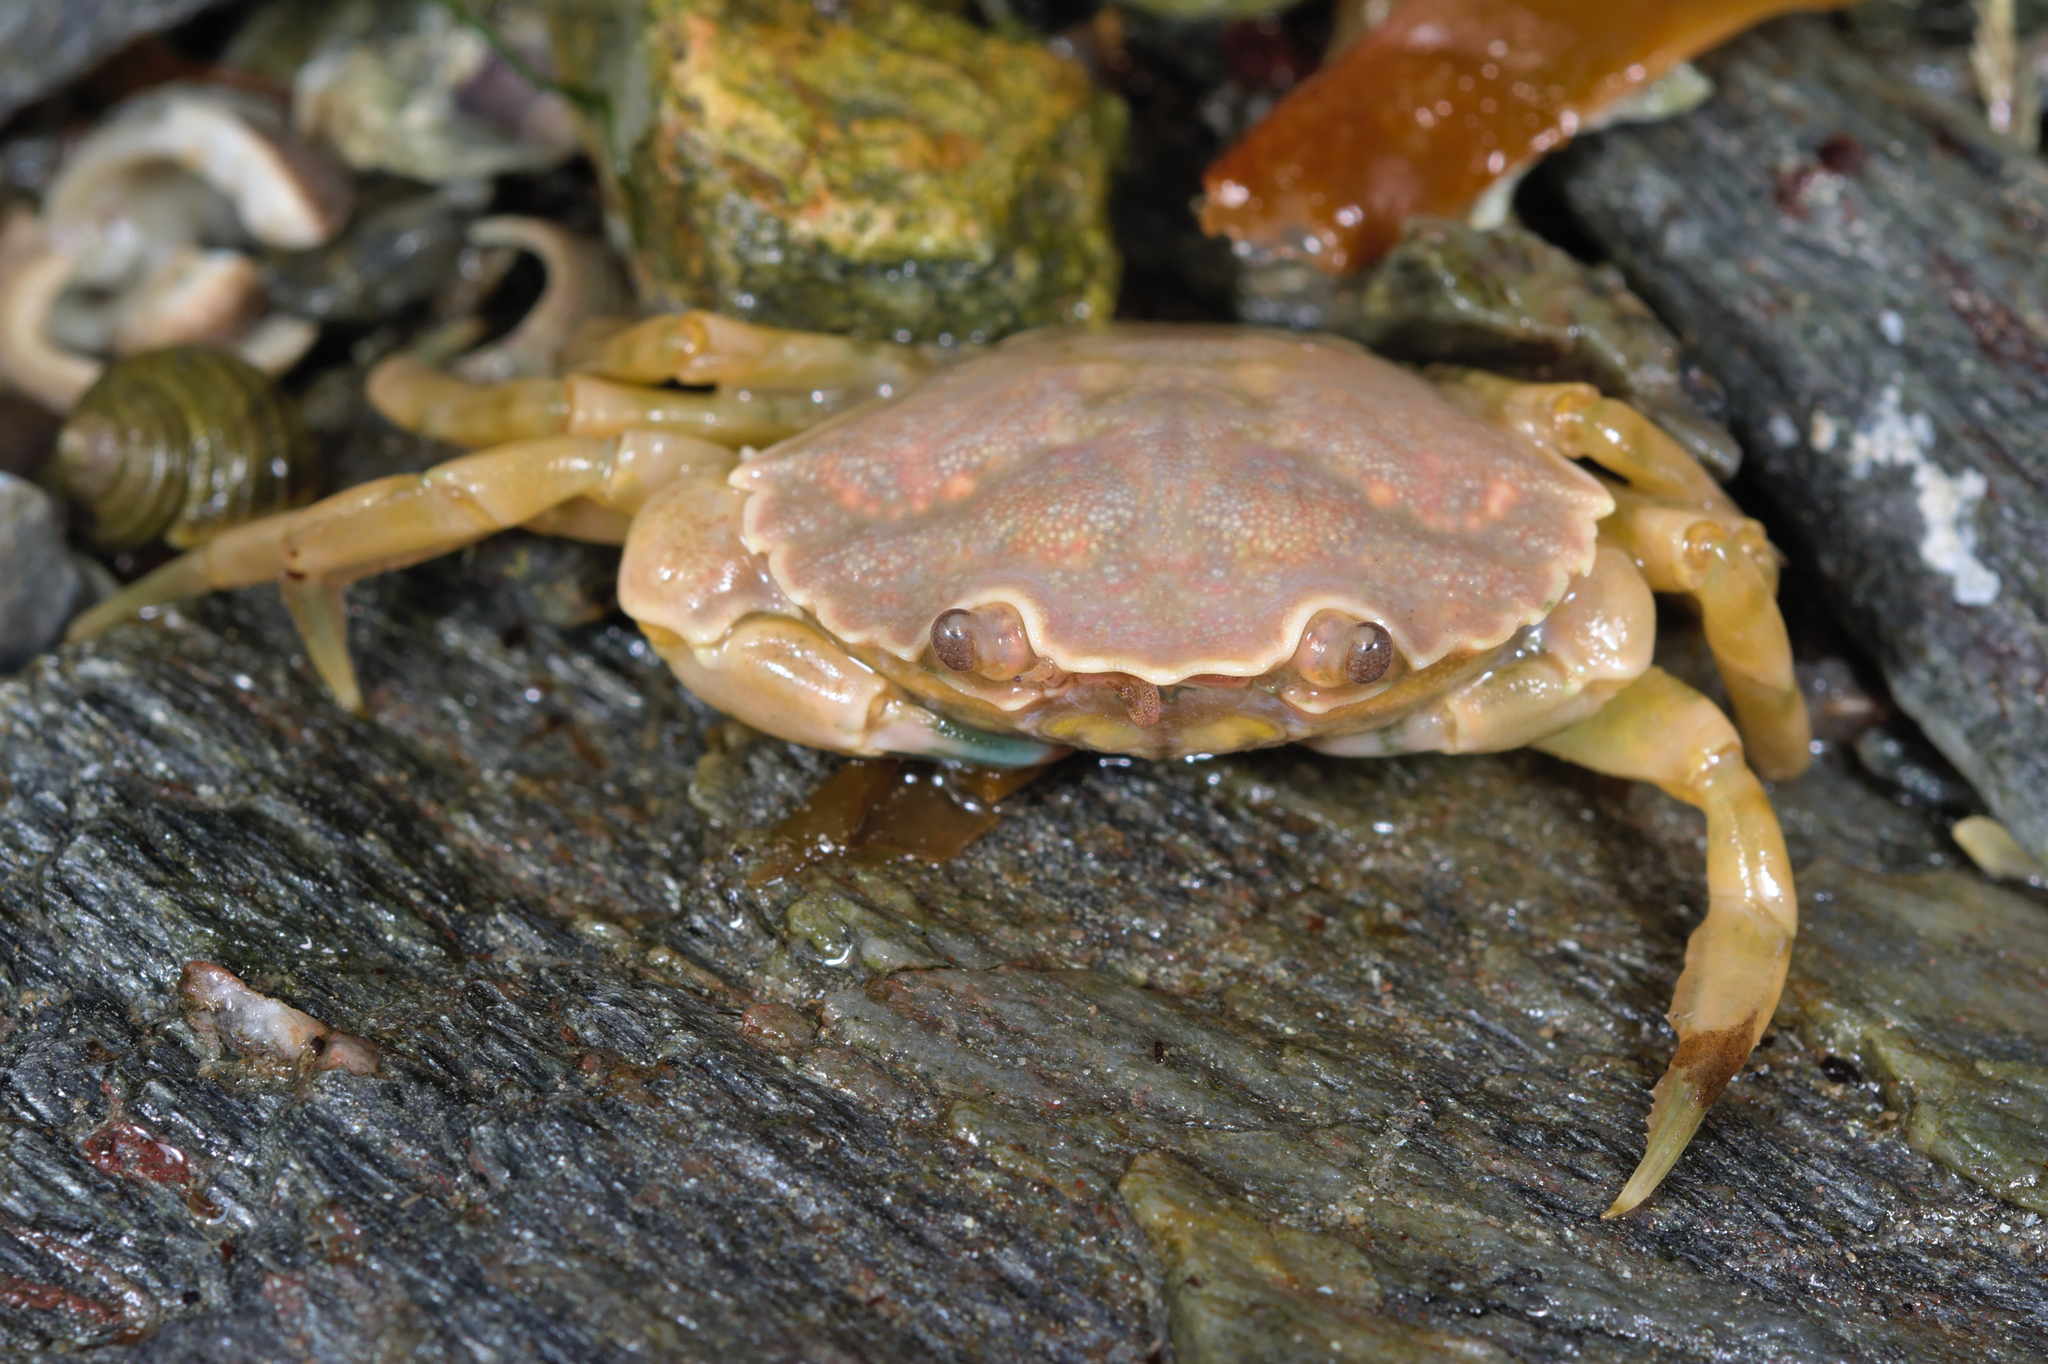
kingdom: Animalia
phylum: Arthropoda
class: Malacostraca
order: Decapoda
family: Carcinidae
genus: Carcinus
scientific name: Carcinus maenas
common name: European green crab
